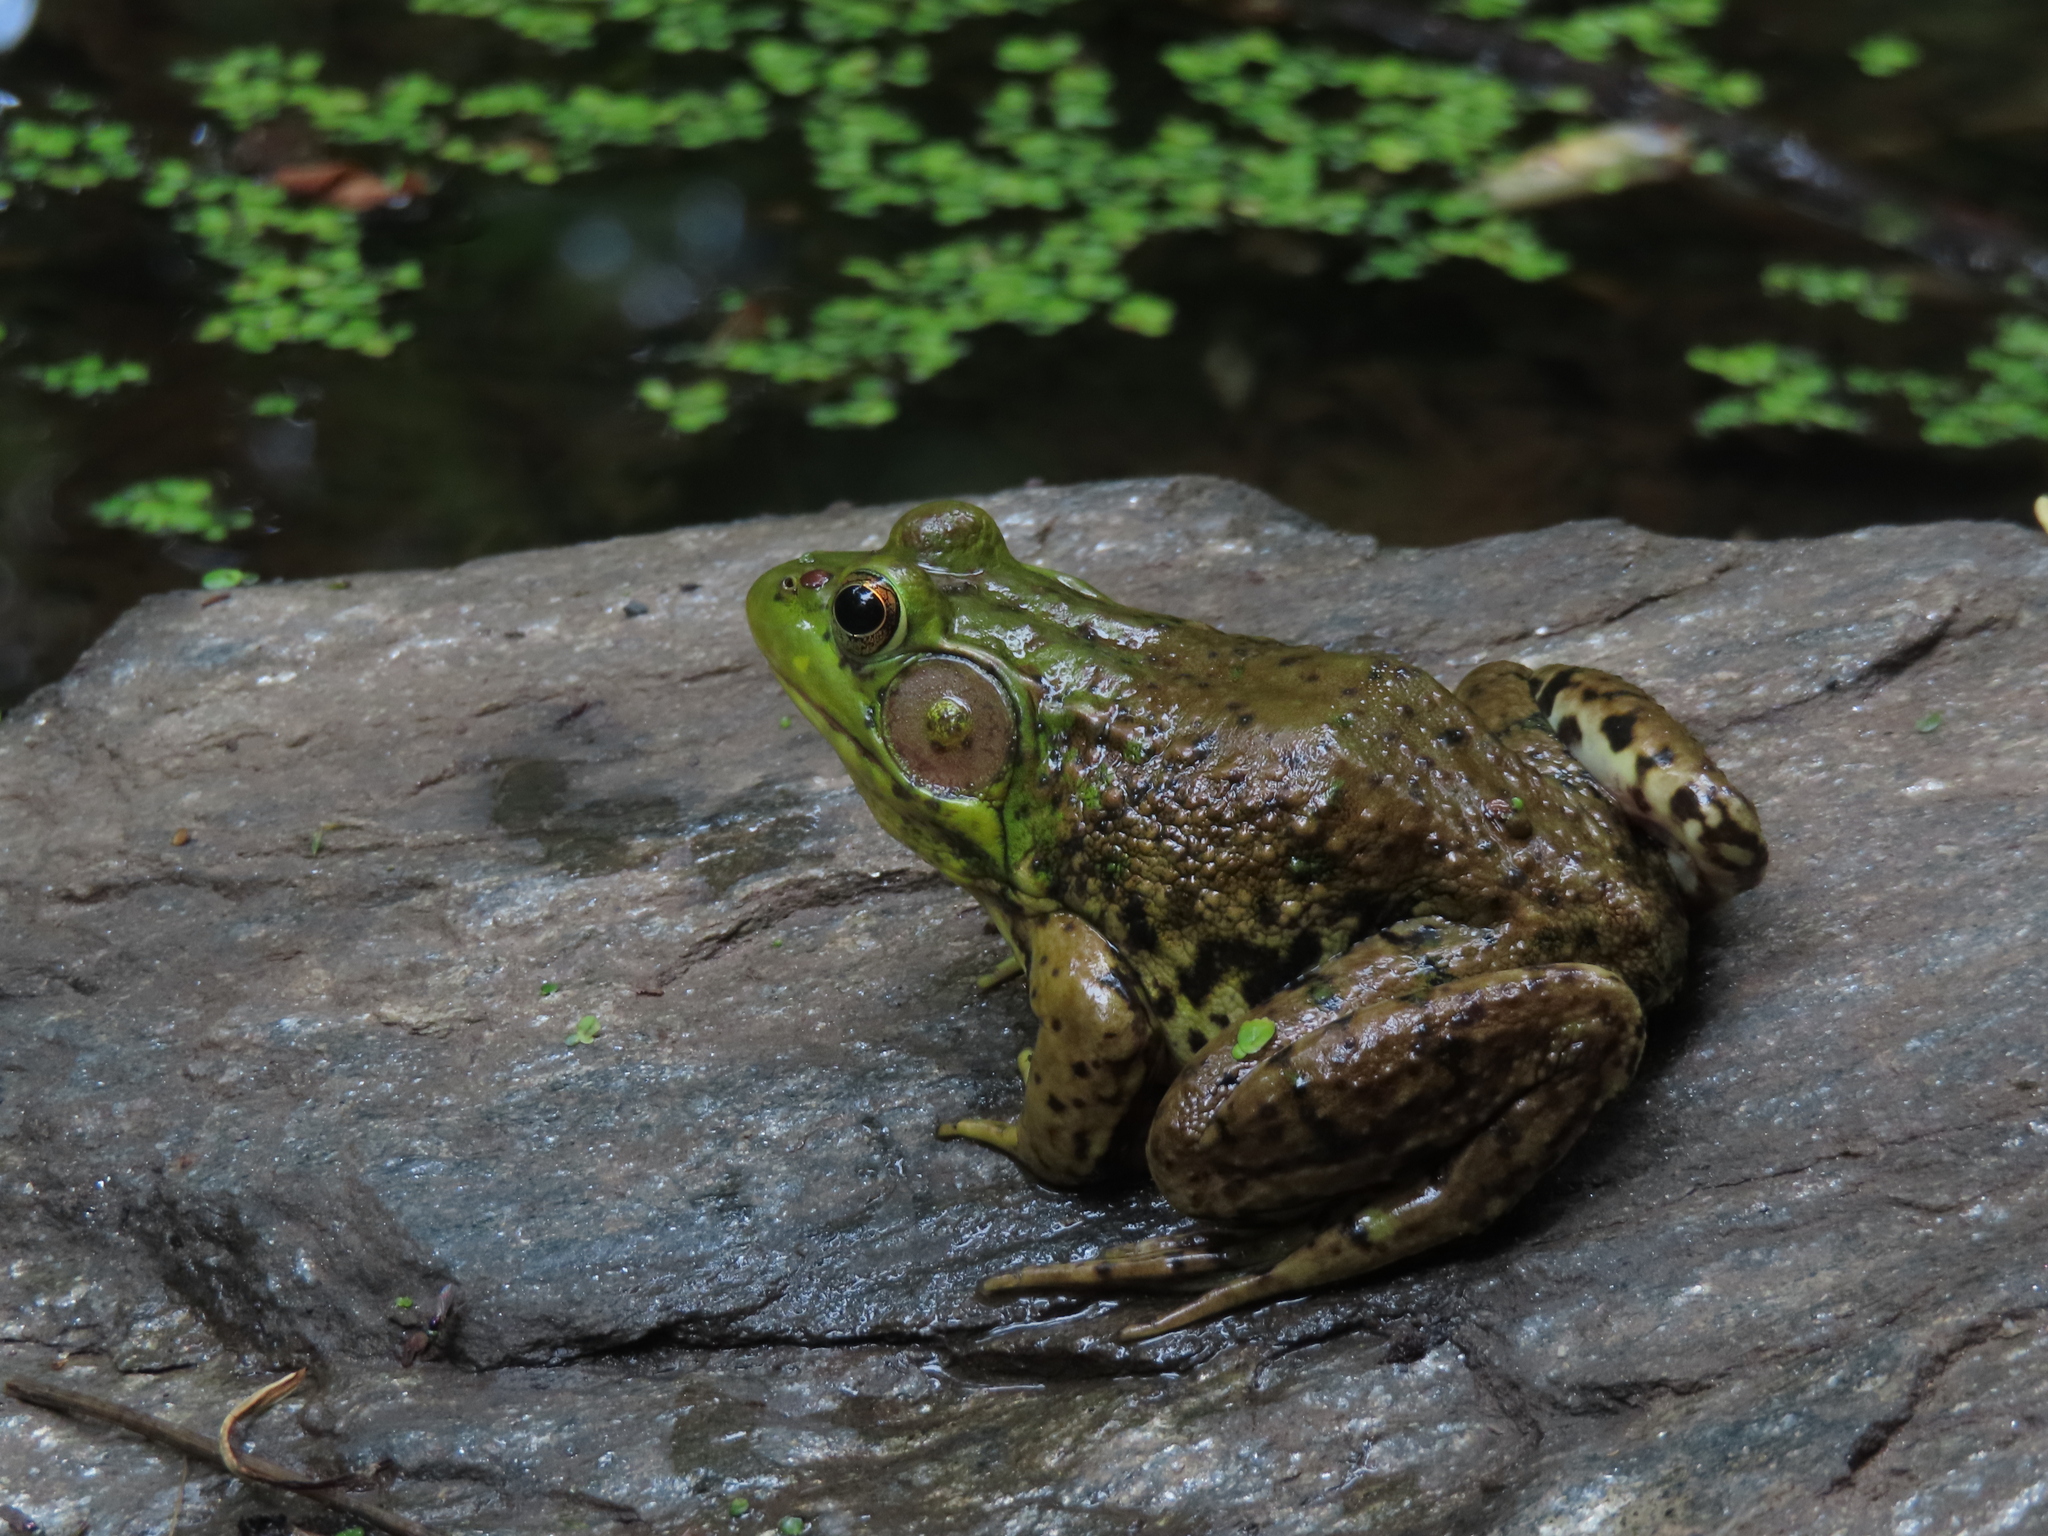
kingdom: Animalia
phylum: Chordata
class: Amphibia
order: Anura
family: Ranidae
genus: Lithobates
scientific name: Lithobates clamitans
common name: Green frog
